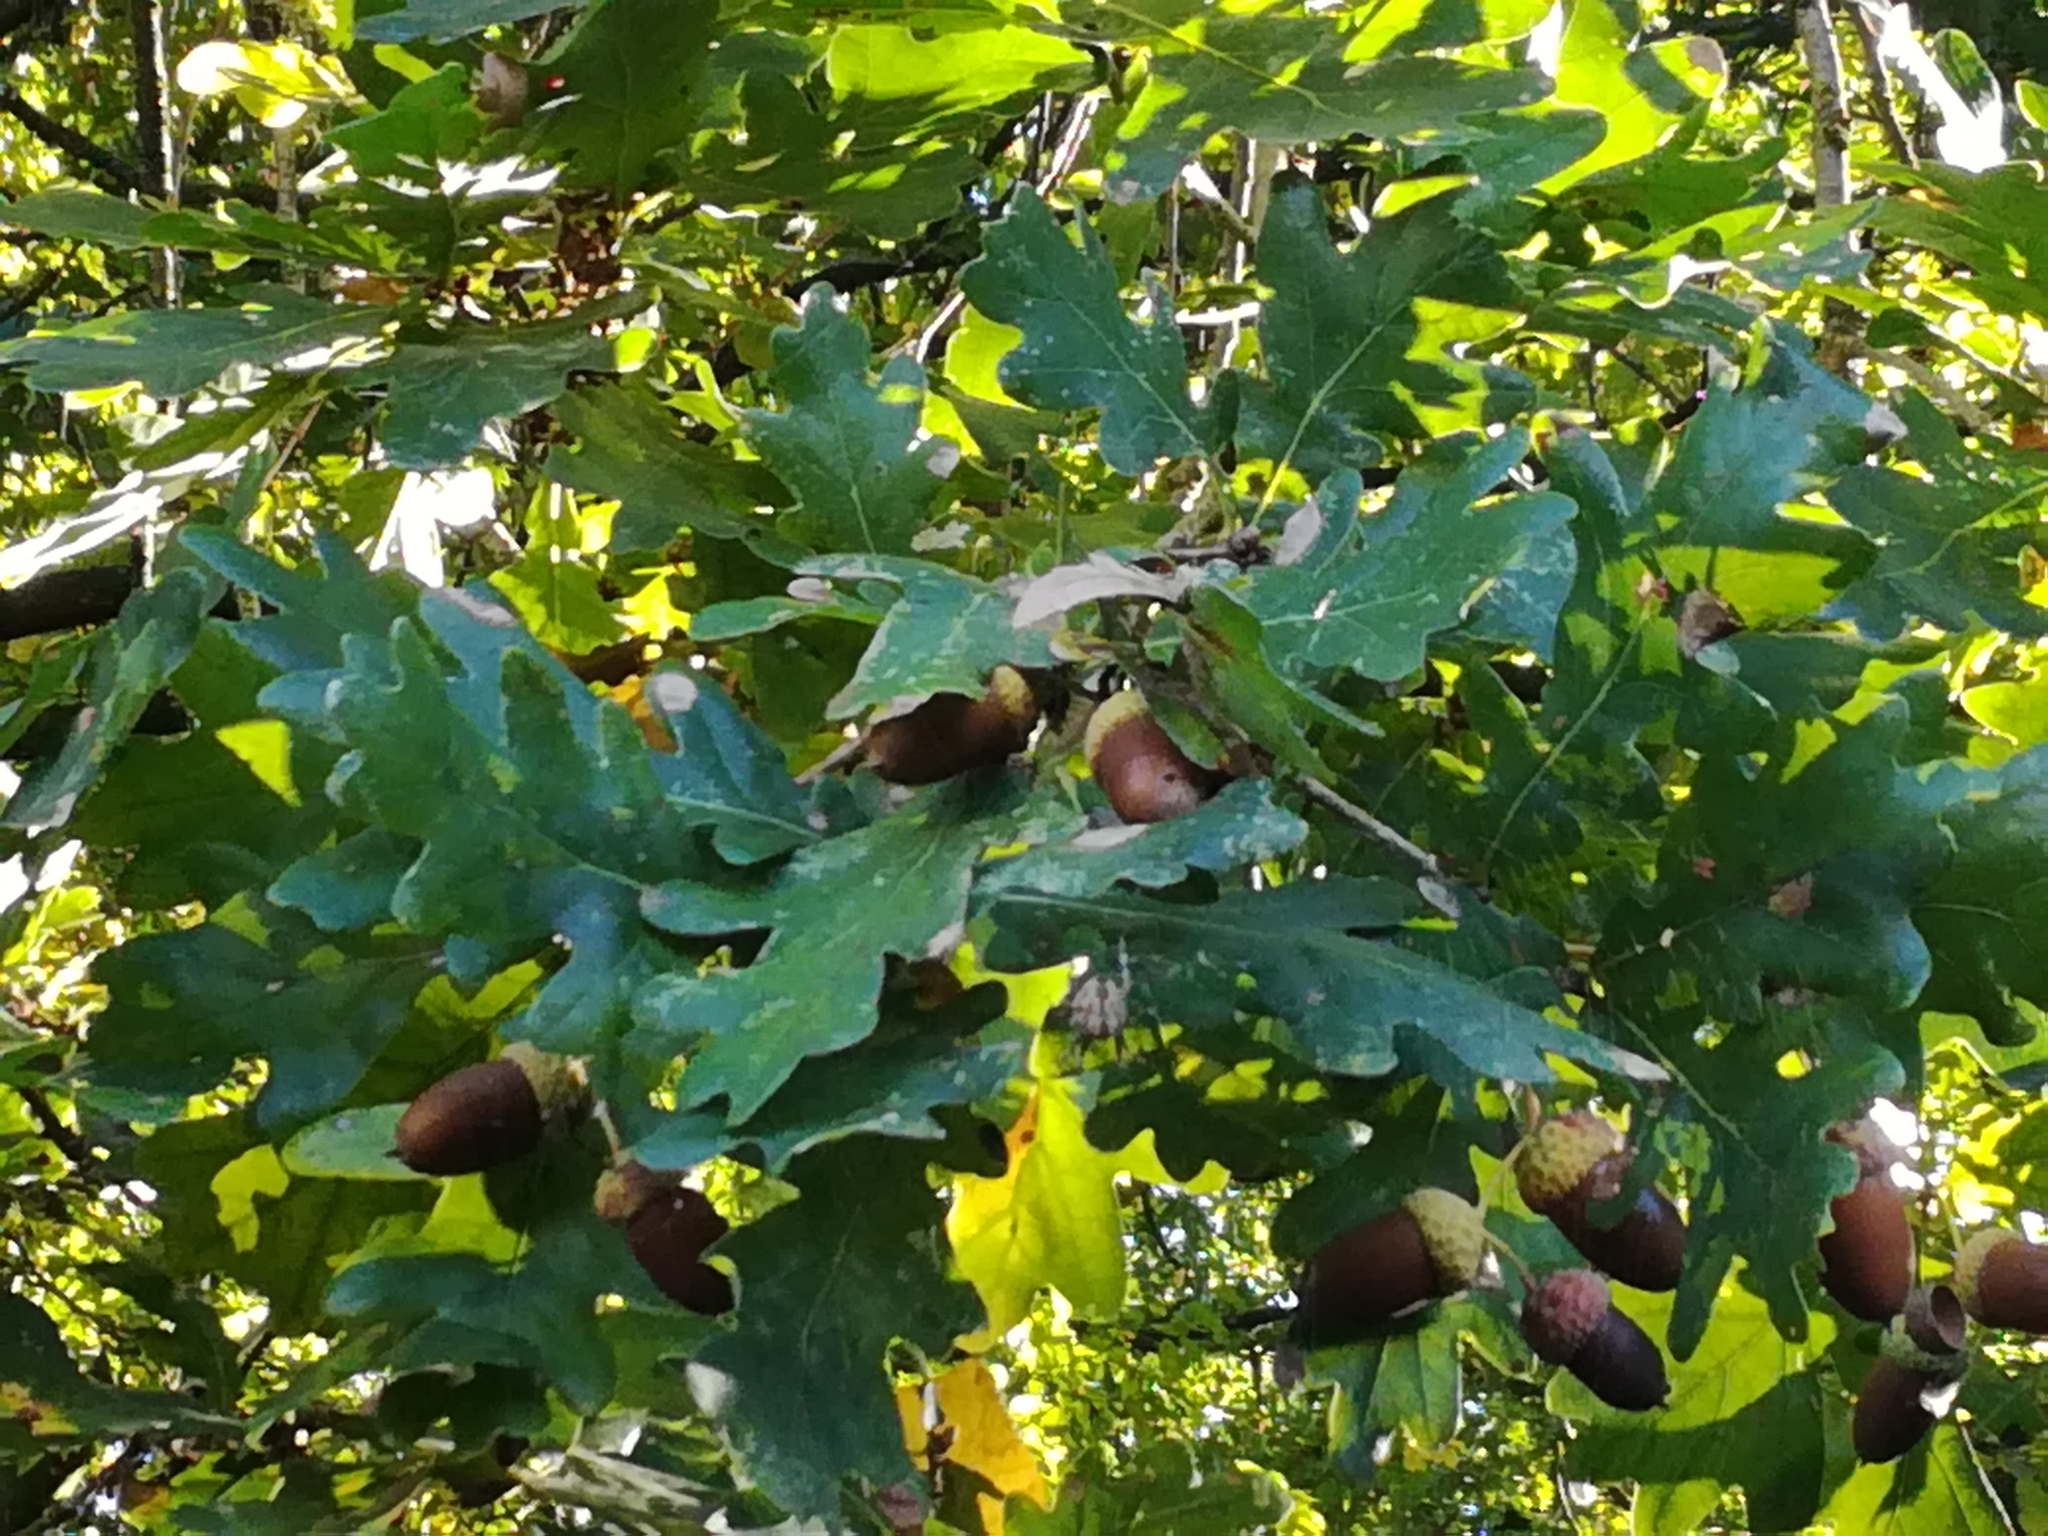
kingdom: Plantae
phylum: Tracheophyta
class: Magnoliopsida
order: Fagales
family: Fagaceae
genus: Quercus
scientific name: Quercus robur
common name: Pedunculate oak
